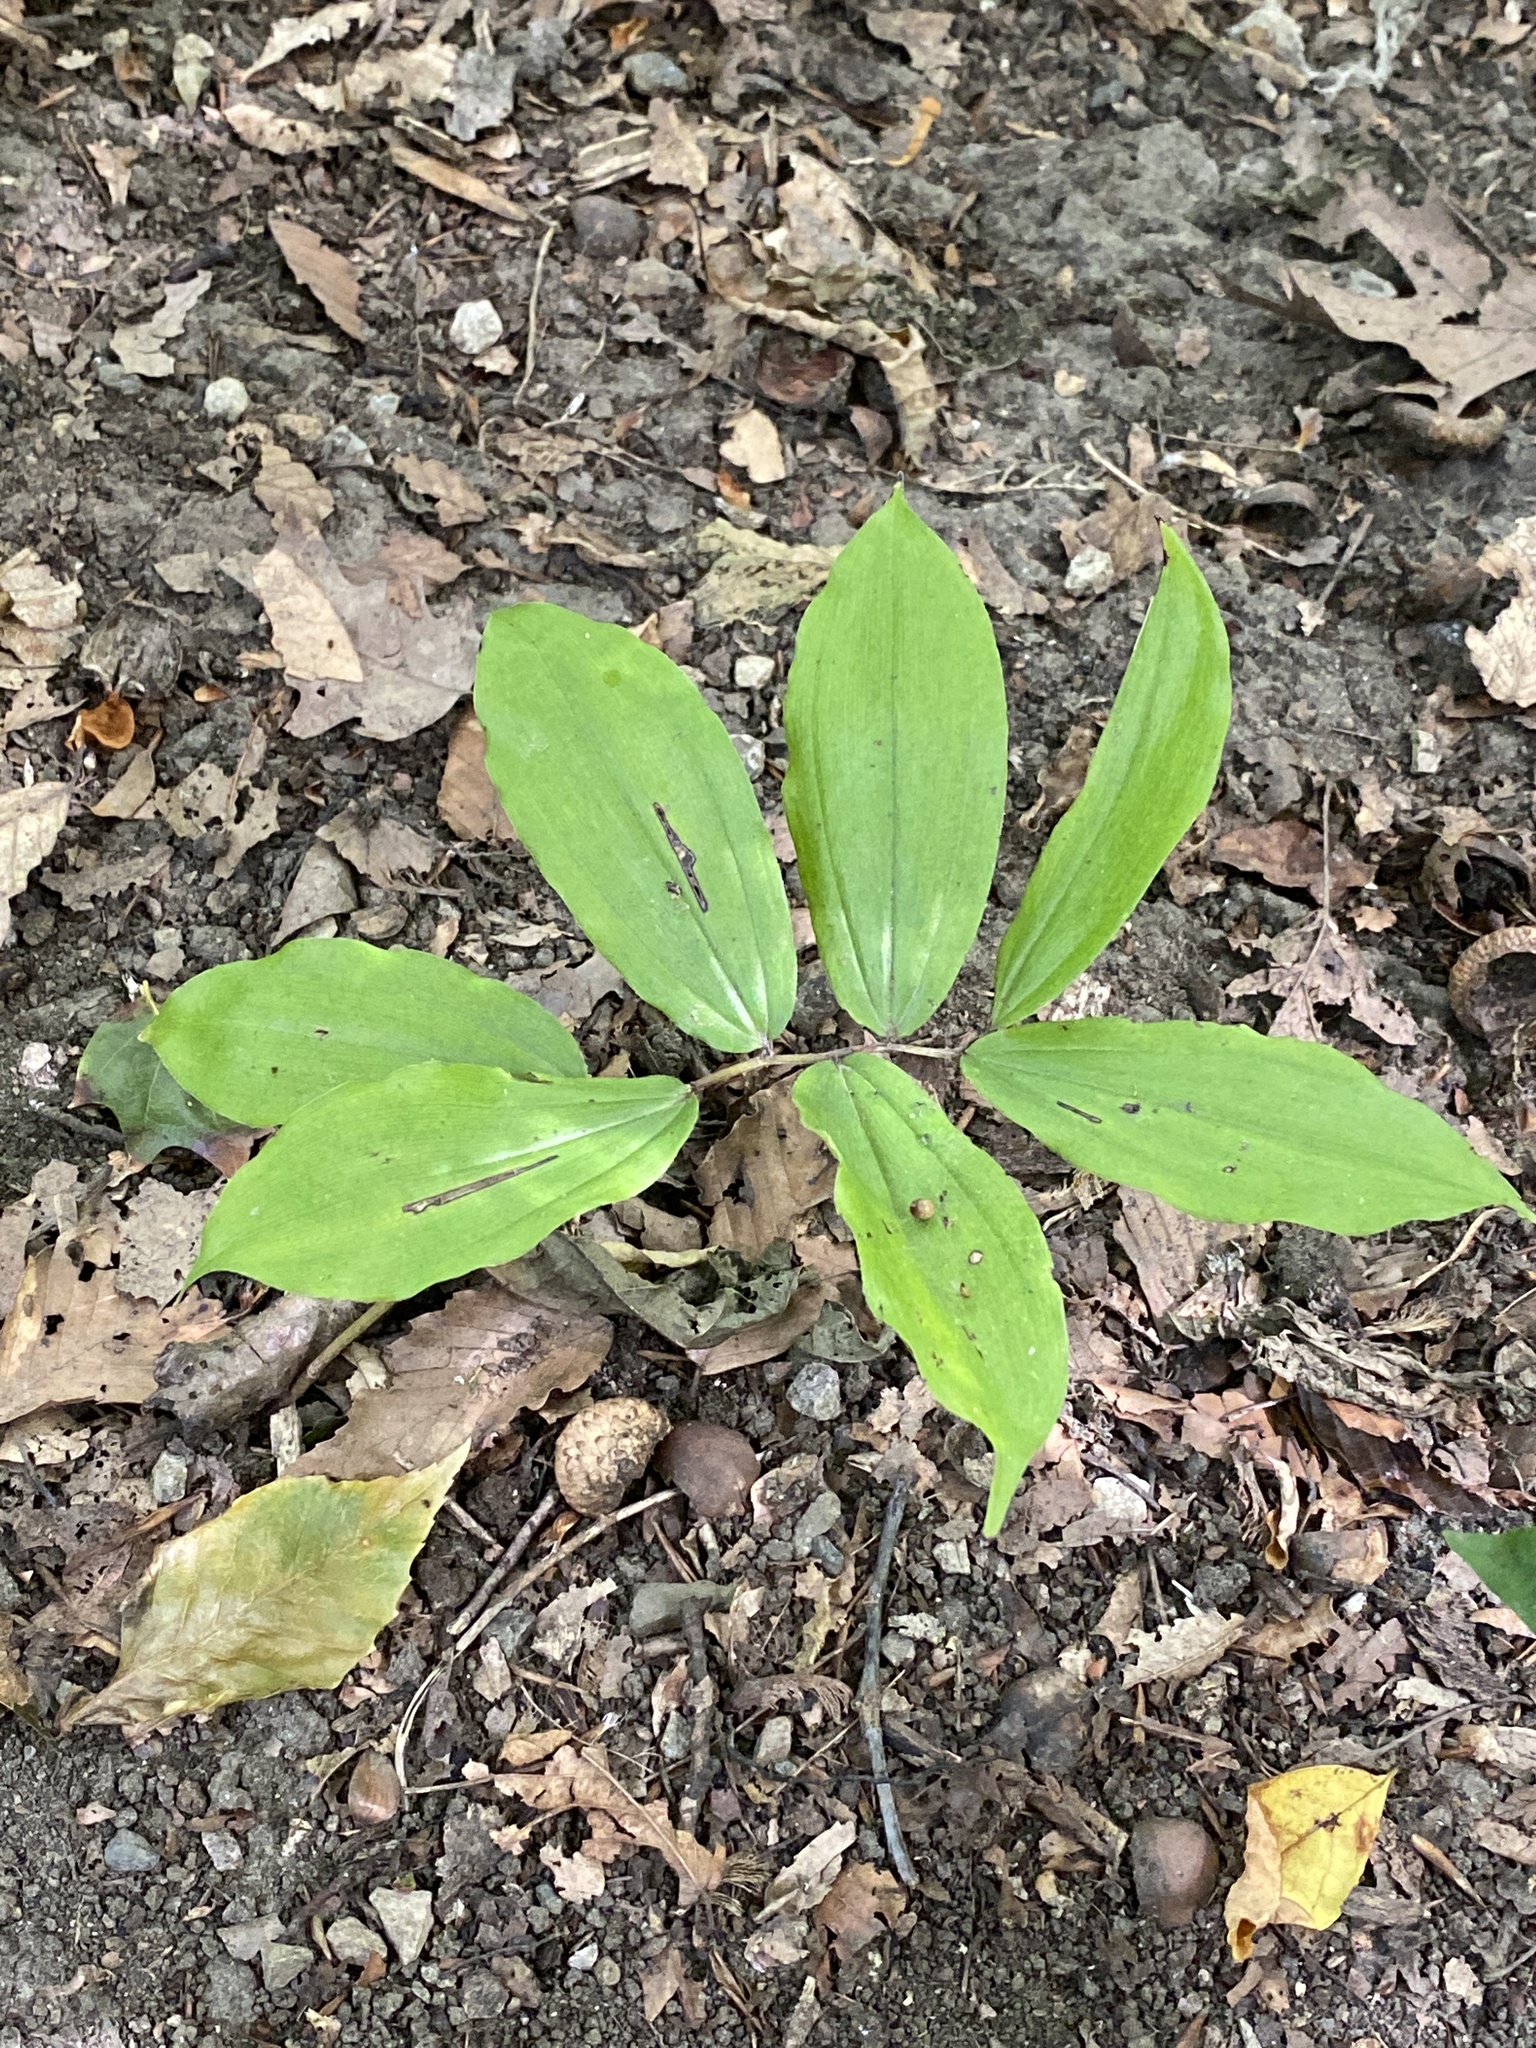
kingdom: Plantae
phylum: Tracheophyta
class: Liliopsida
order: Asparagales
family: Asparagaceae
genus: Maianthemum
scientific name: Maianthemum racemosum
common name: False spikenard
